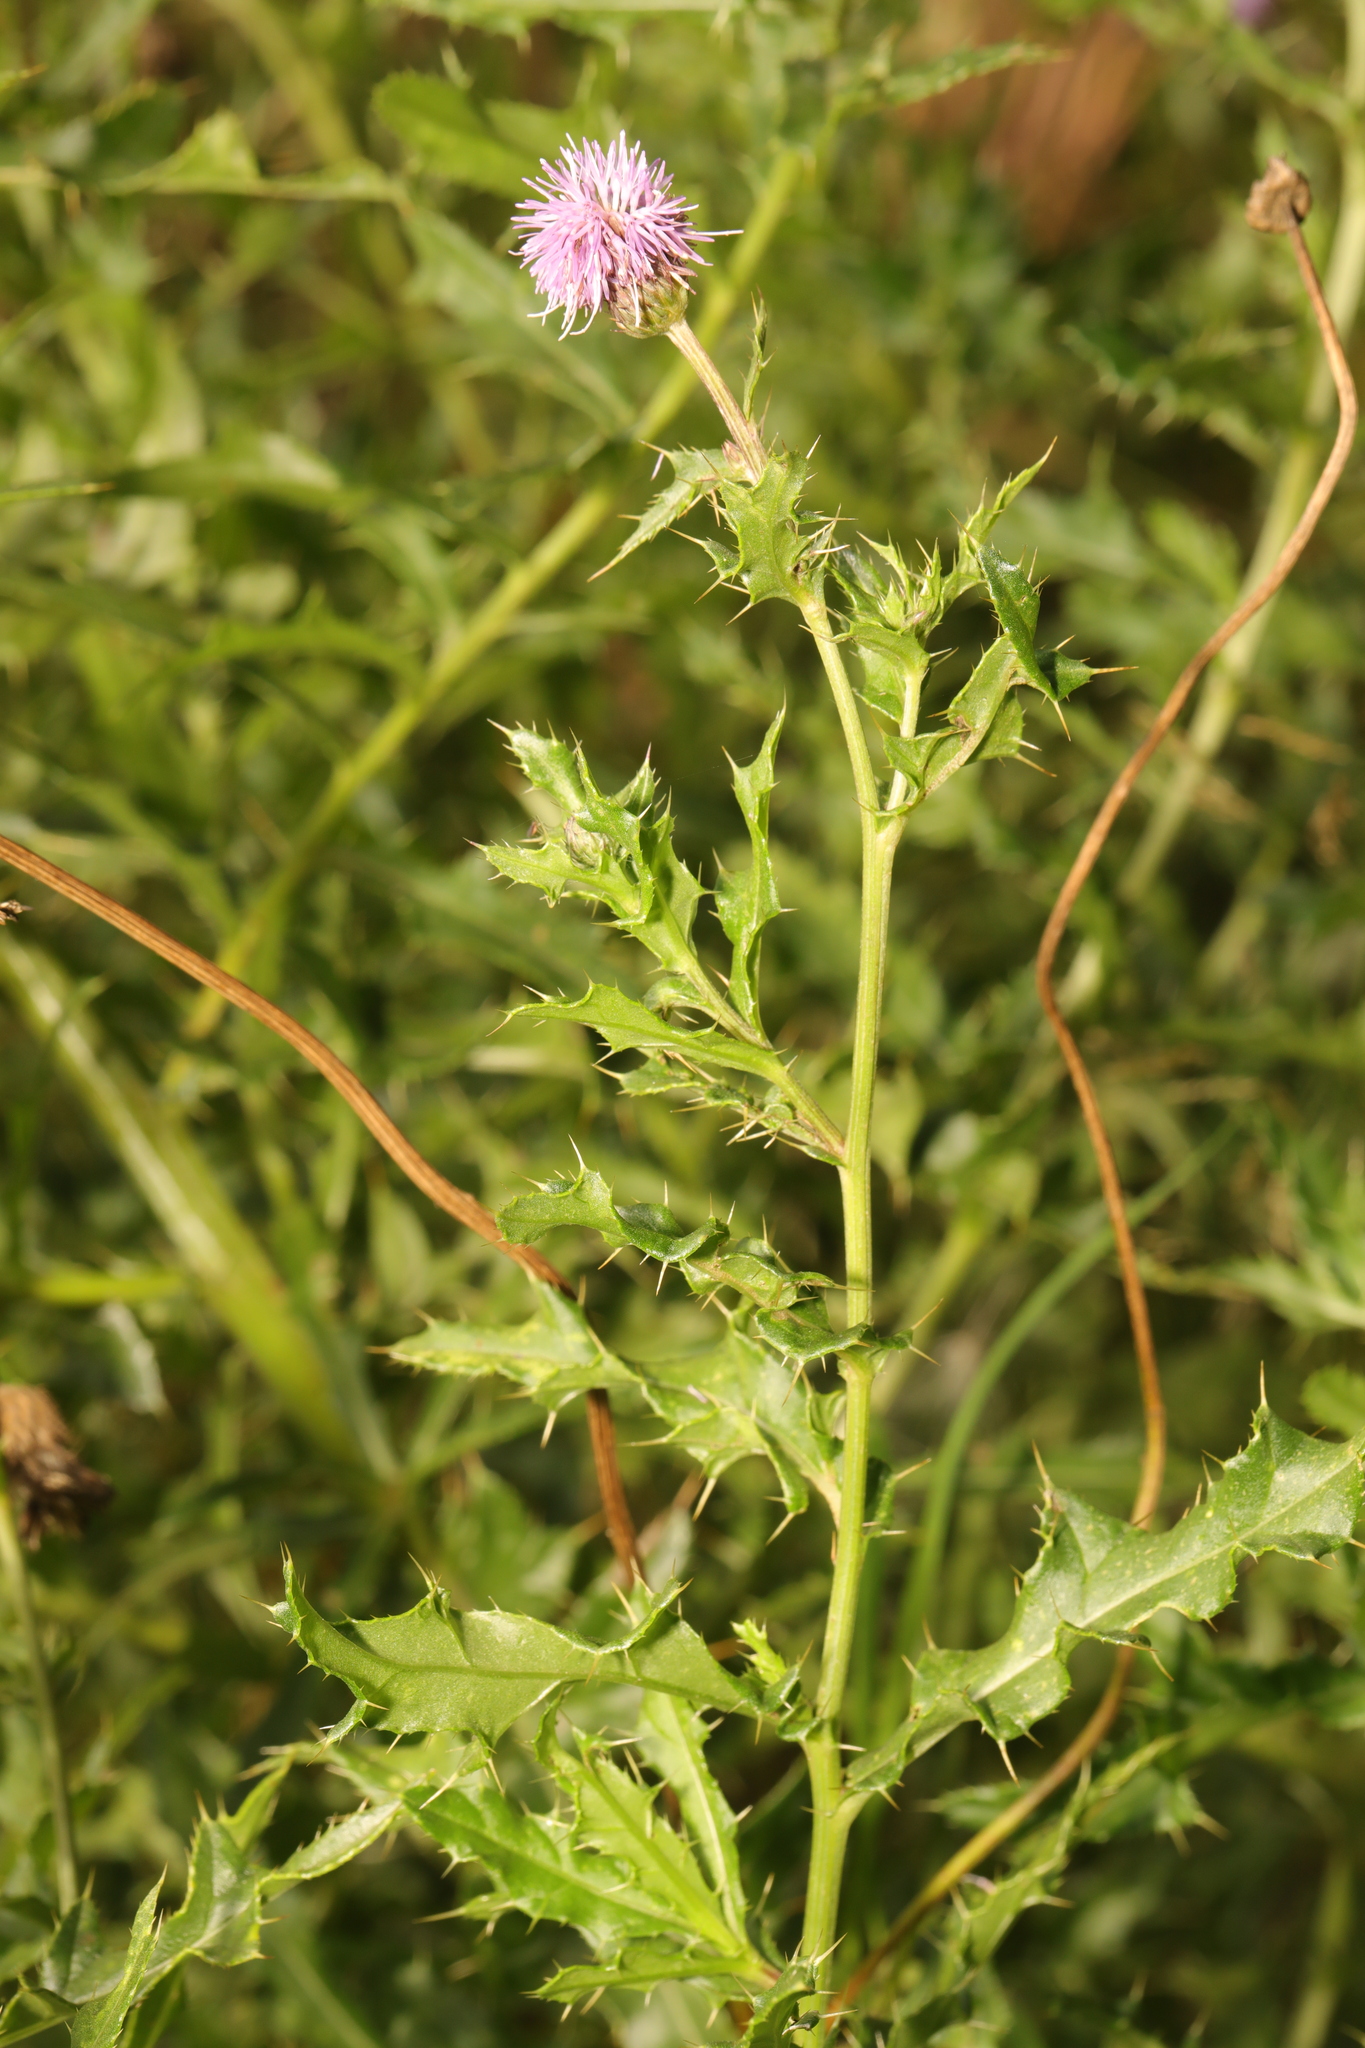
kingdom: Plantae
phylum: Tracheophyta
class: Magnoliopsida
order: Asterales
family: Asteraceae
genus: Cirsium
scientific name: Cirsium arvense
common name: Creeping thistle
